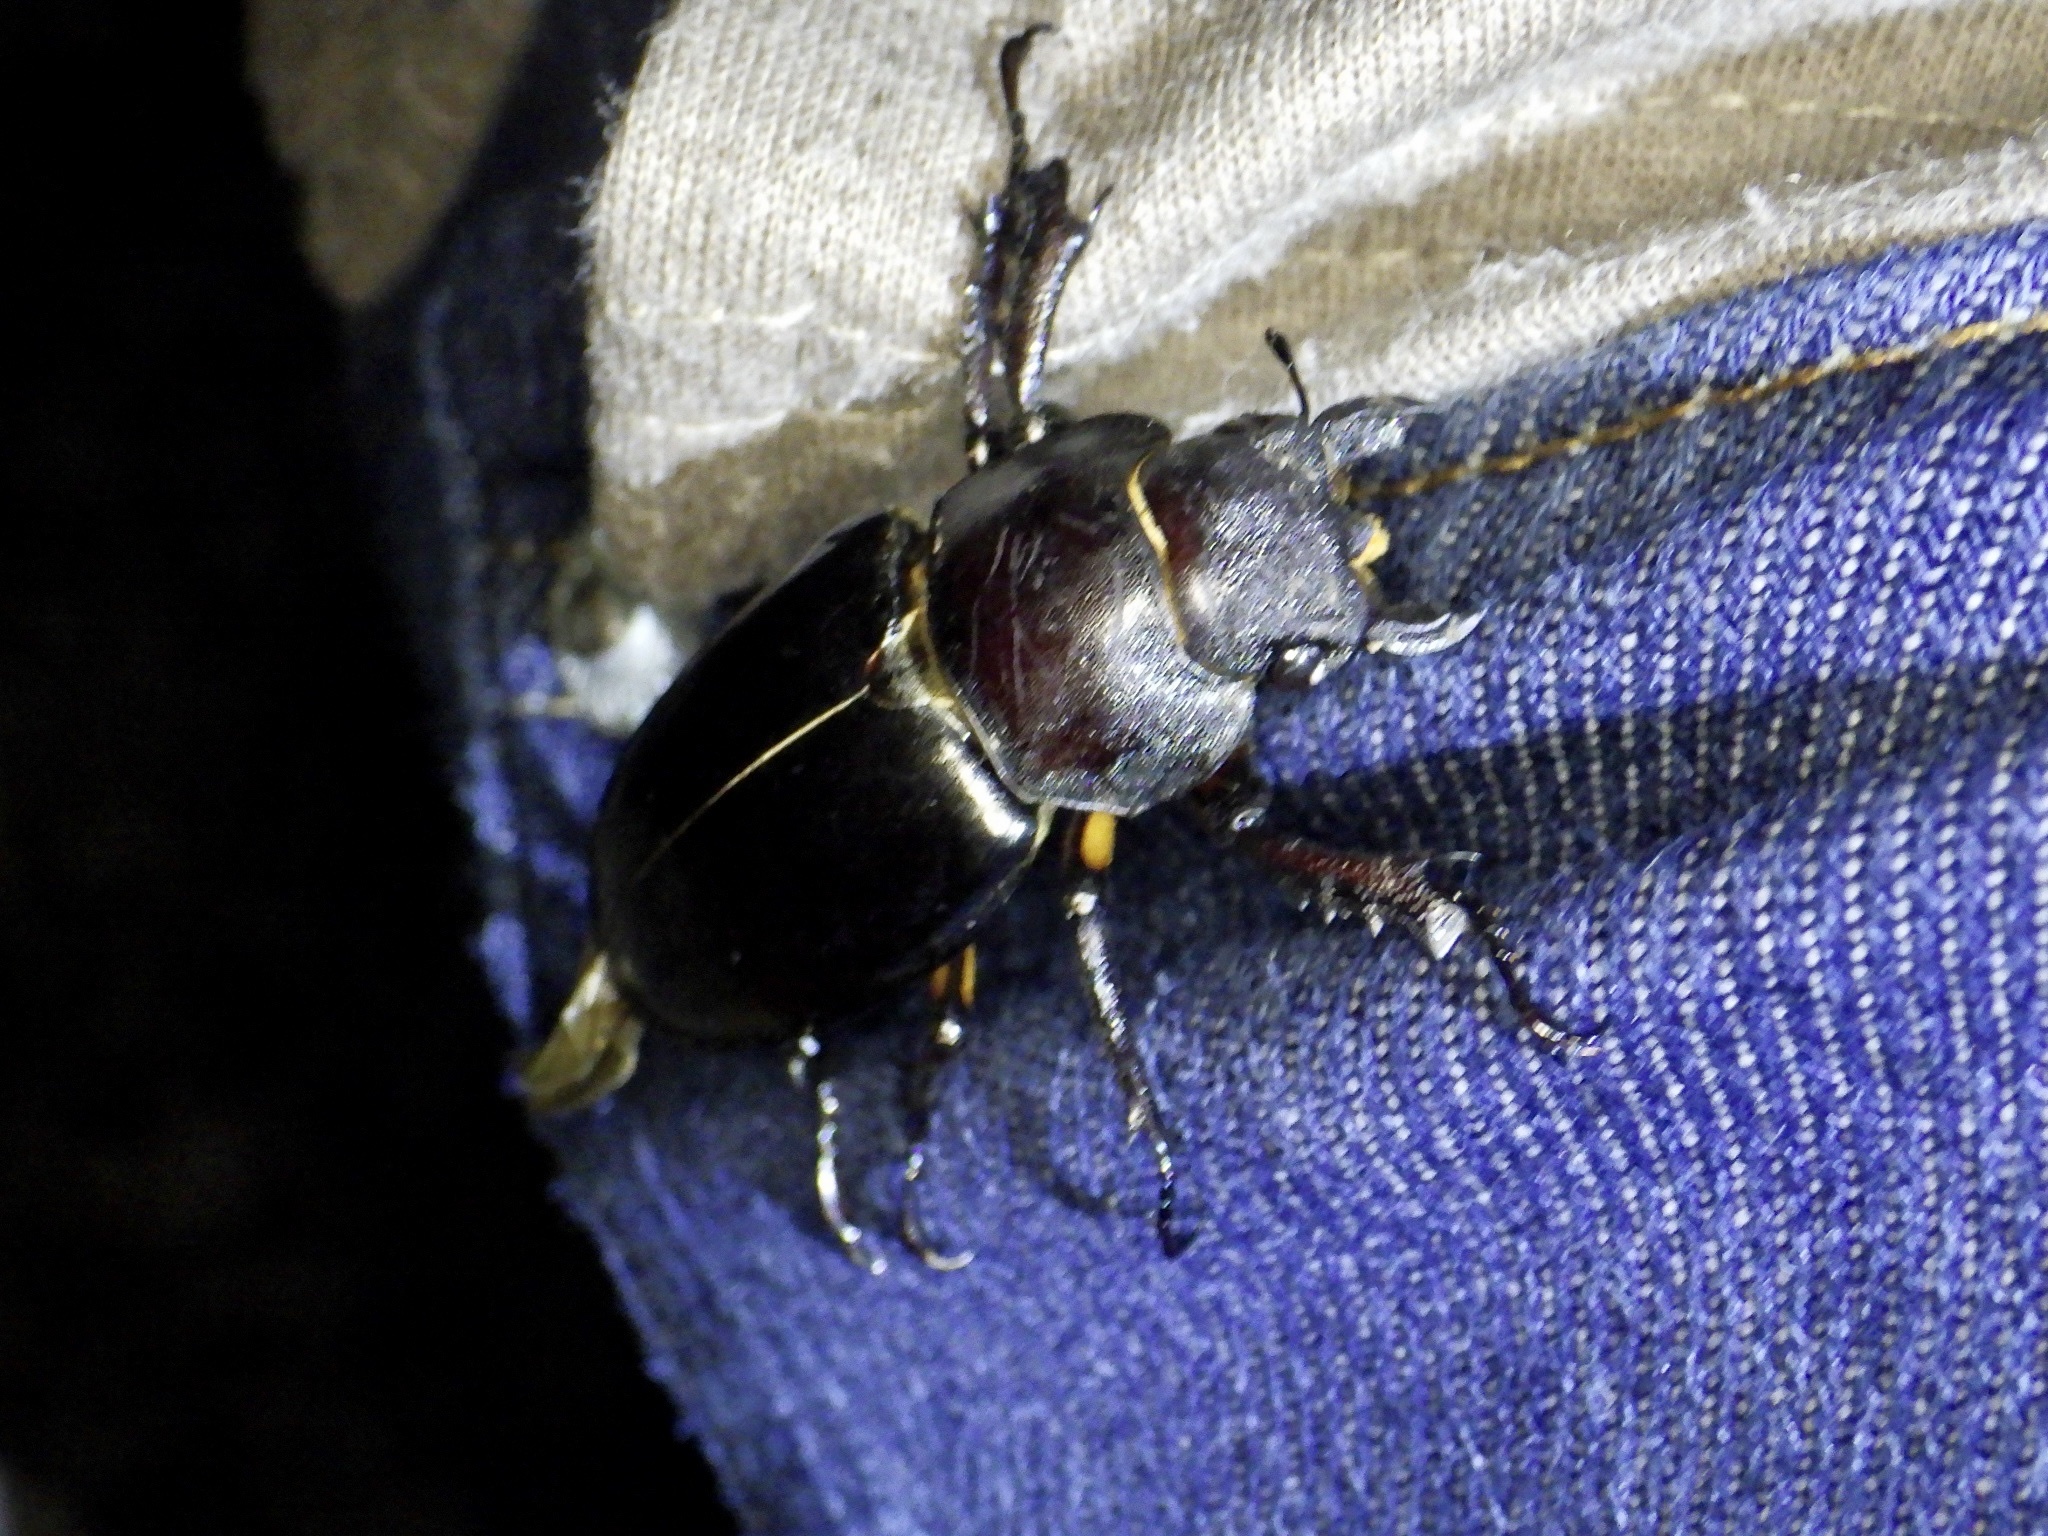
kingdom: Animalia
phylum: Arthropoda
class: Insecta
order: Coleoptera
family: Lucanidae
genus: Lucanus
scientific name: Lucanus maculifemoratus
